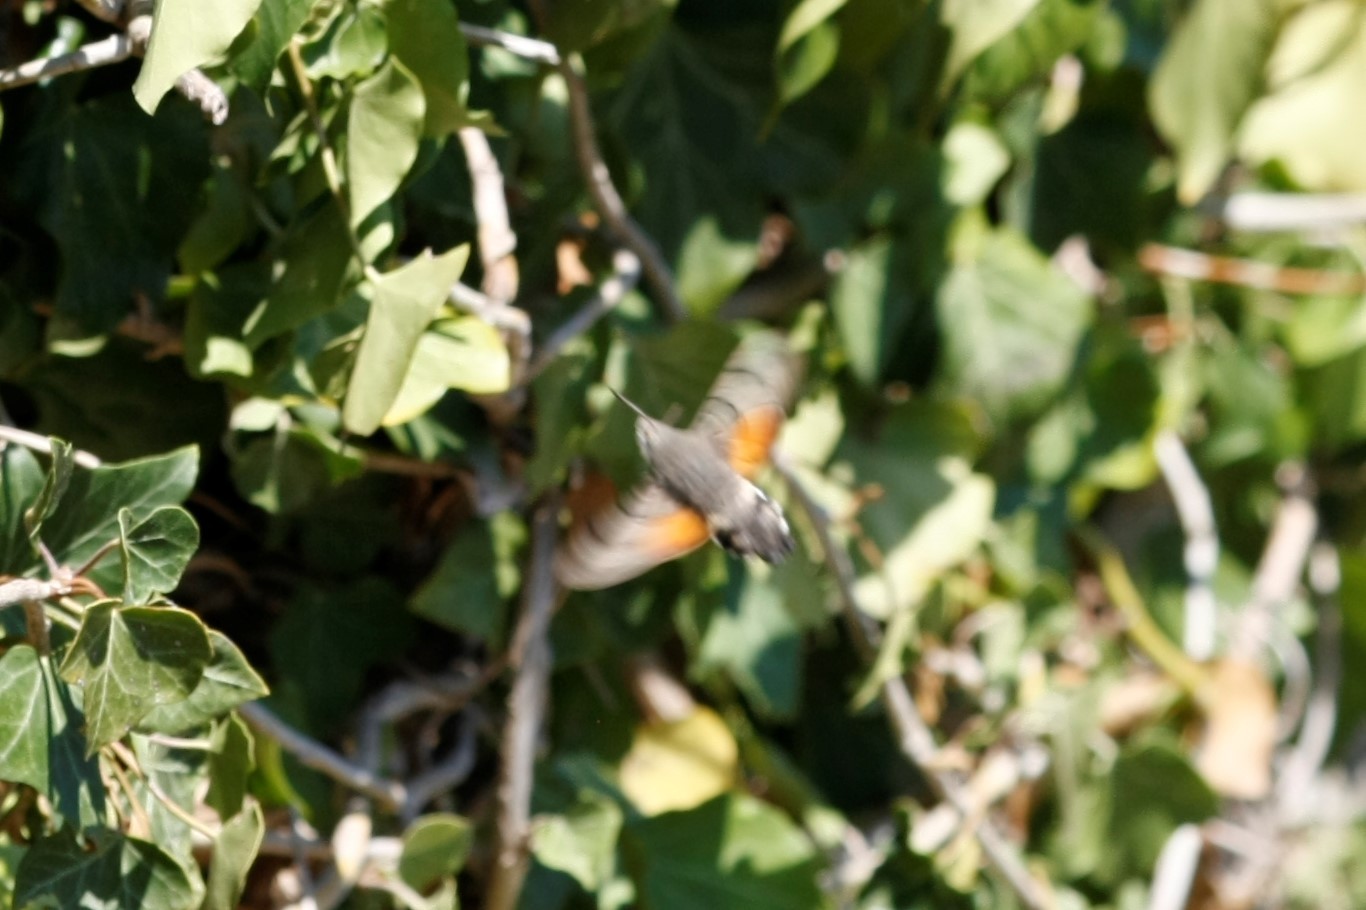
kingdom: Animalia
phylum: Arthropoda
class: Insecta
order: Lepidoptera
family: Sphingidae
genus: Macroglossum
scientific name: Macroglossum stellatarum
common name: Humming-bird hawk-moth
